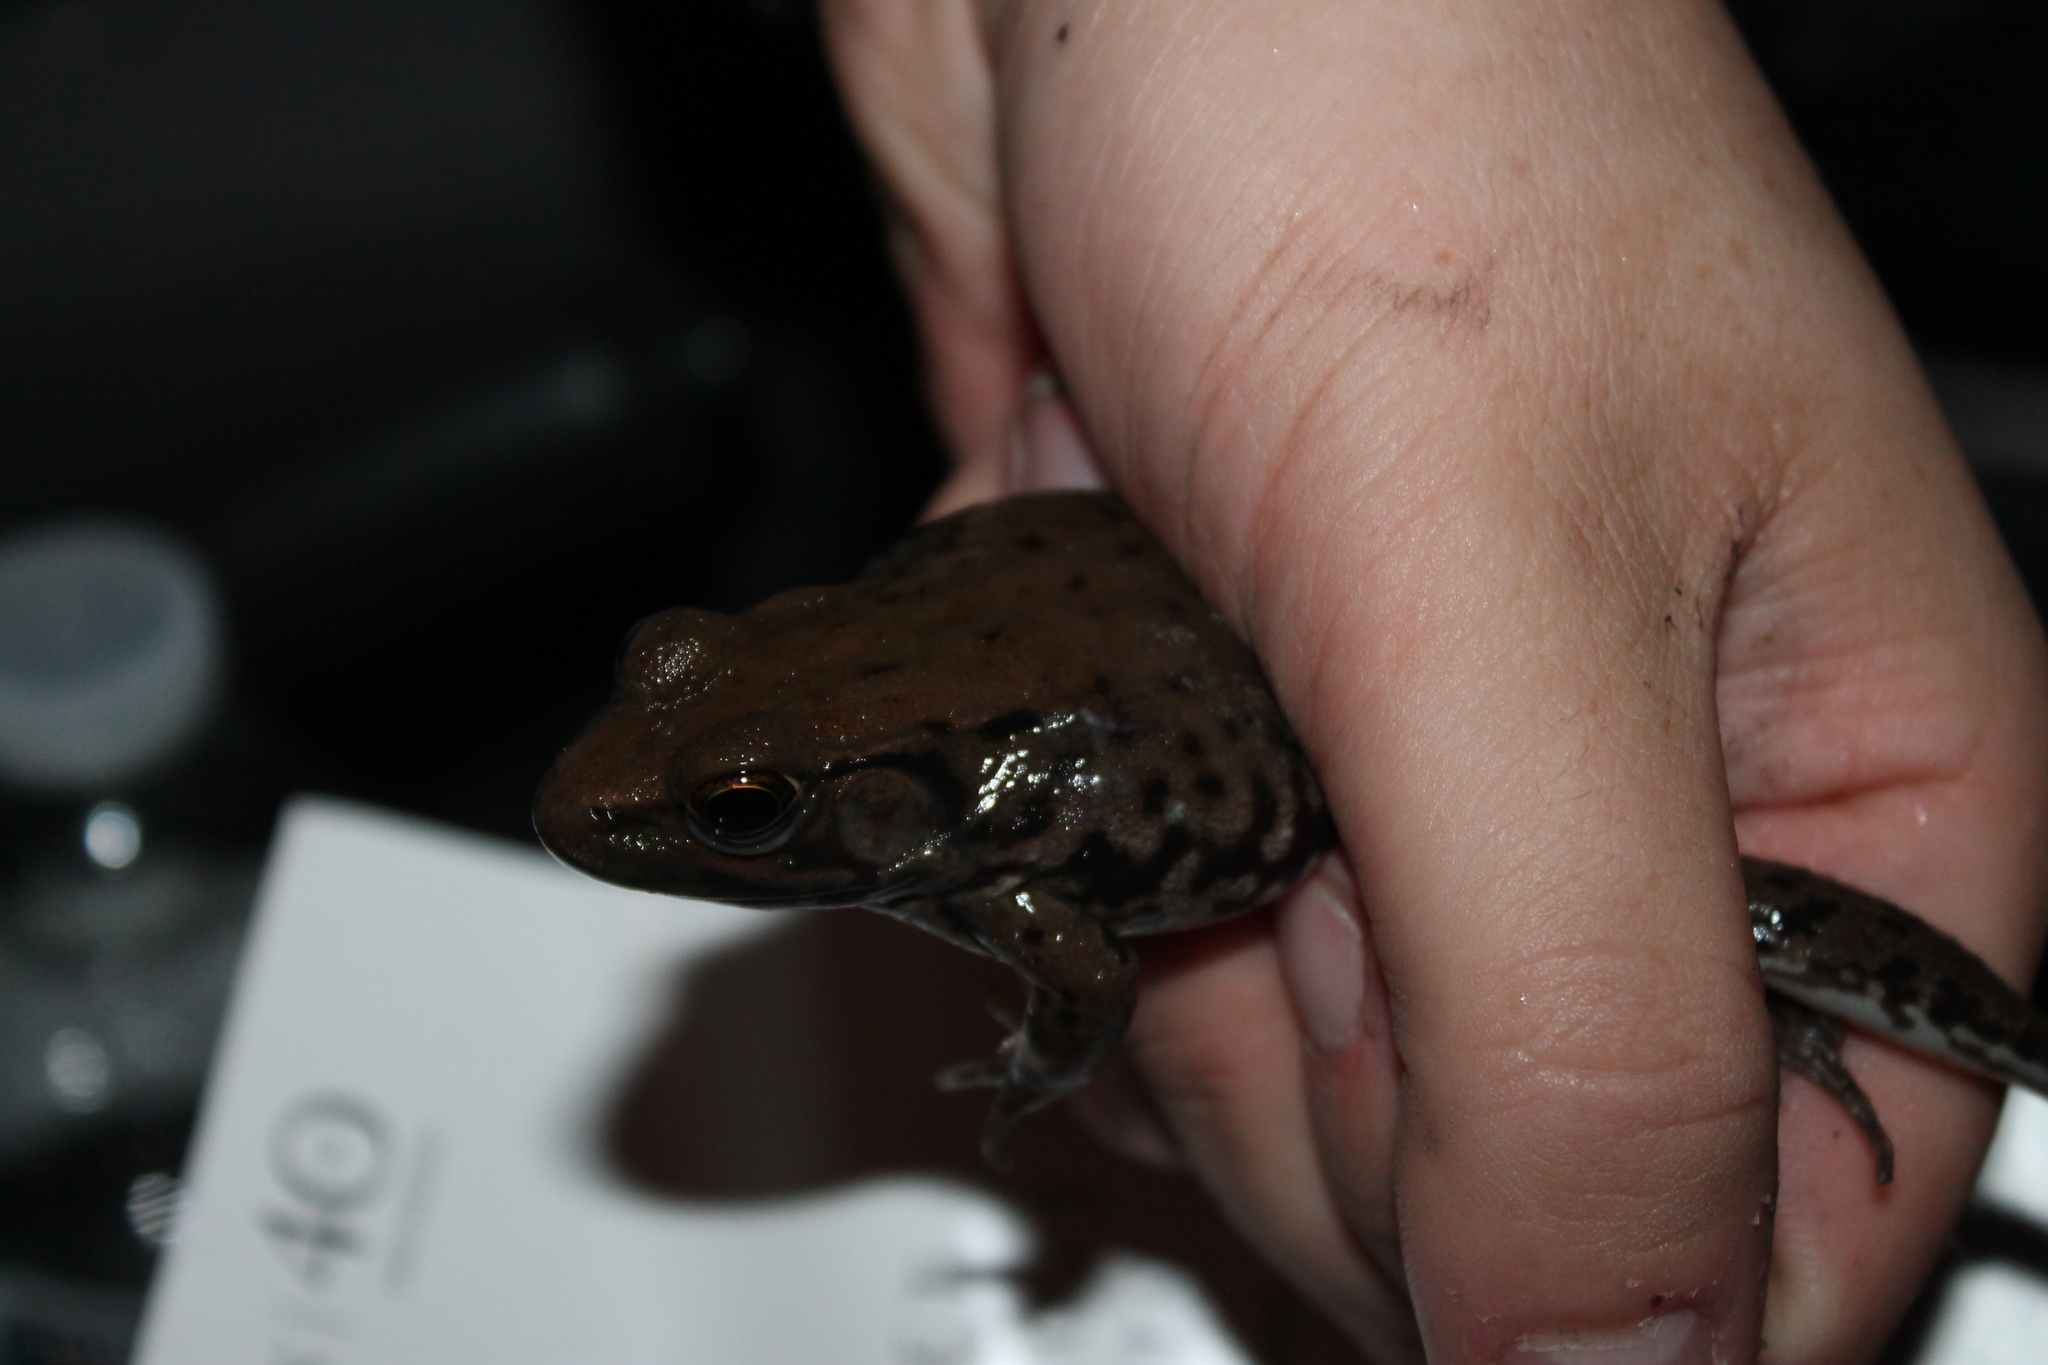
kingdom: Animalia
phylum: Chordata
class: Amphibia
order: Anura
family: Ranidae
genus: Lithobates
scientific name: Lithobates clamitans
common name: Green frog
